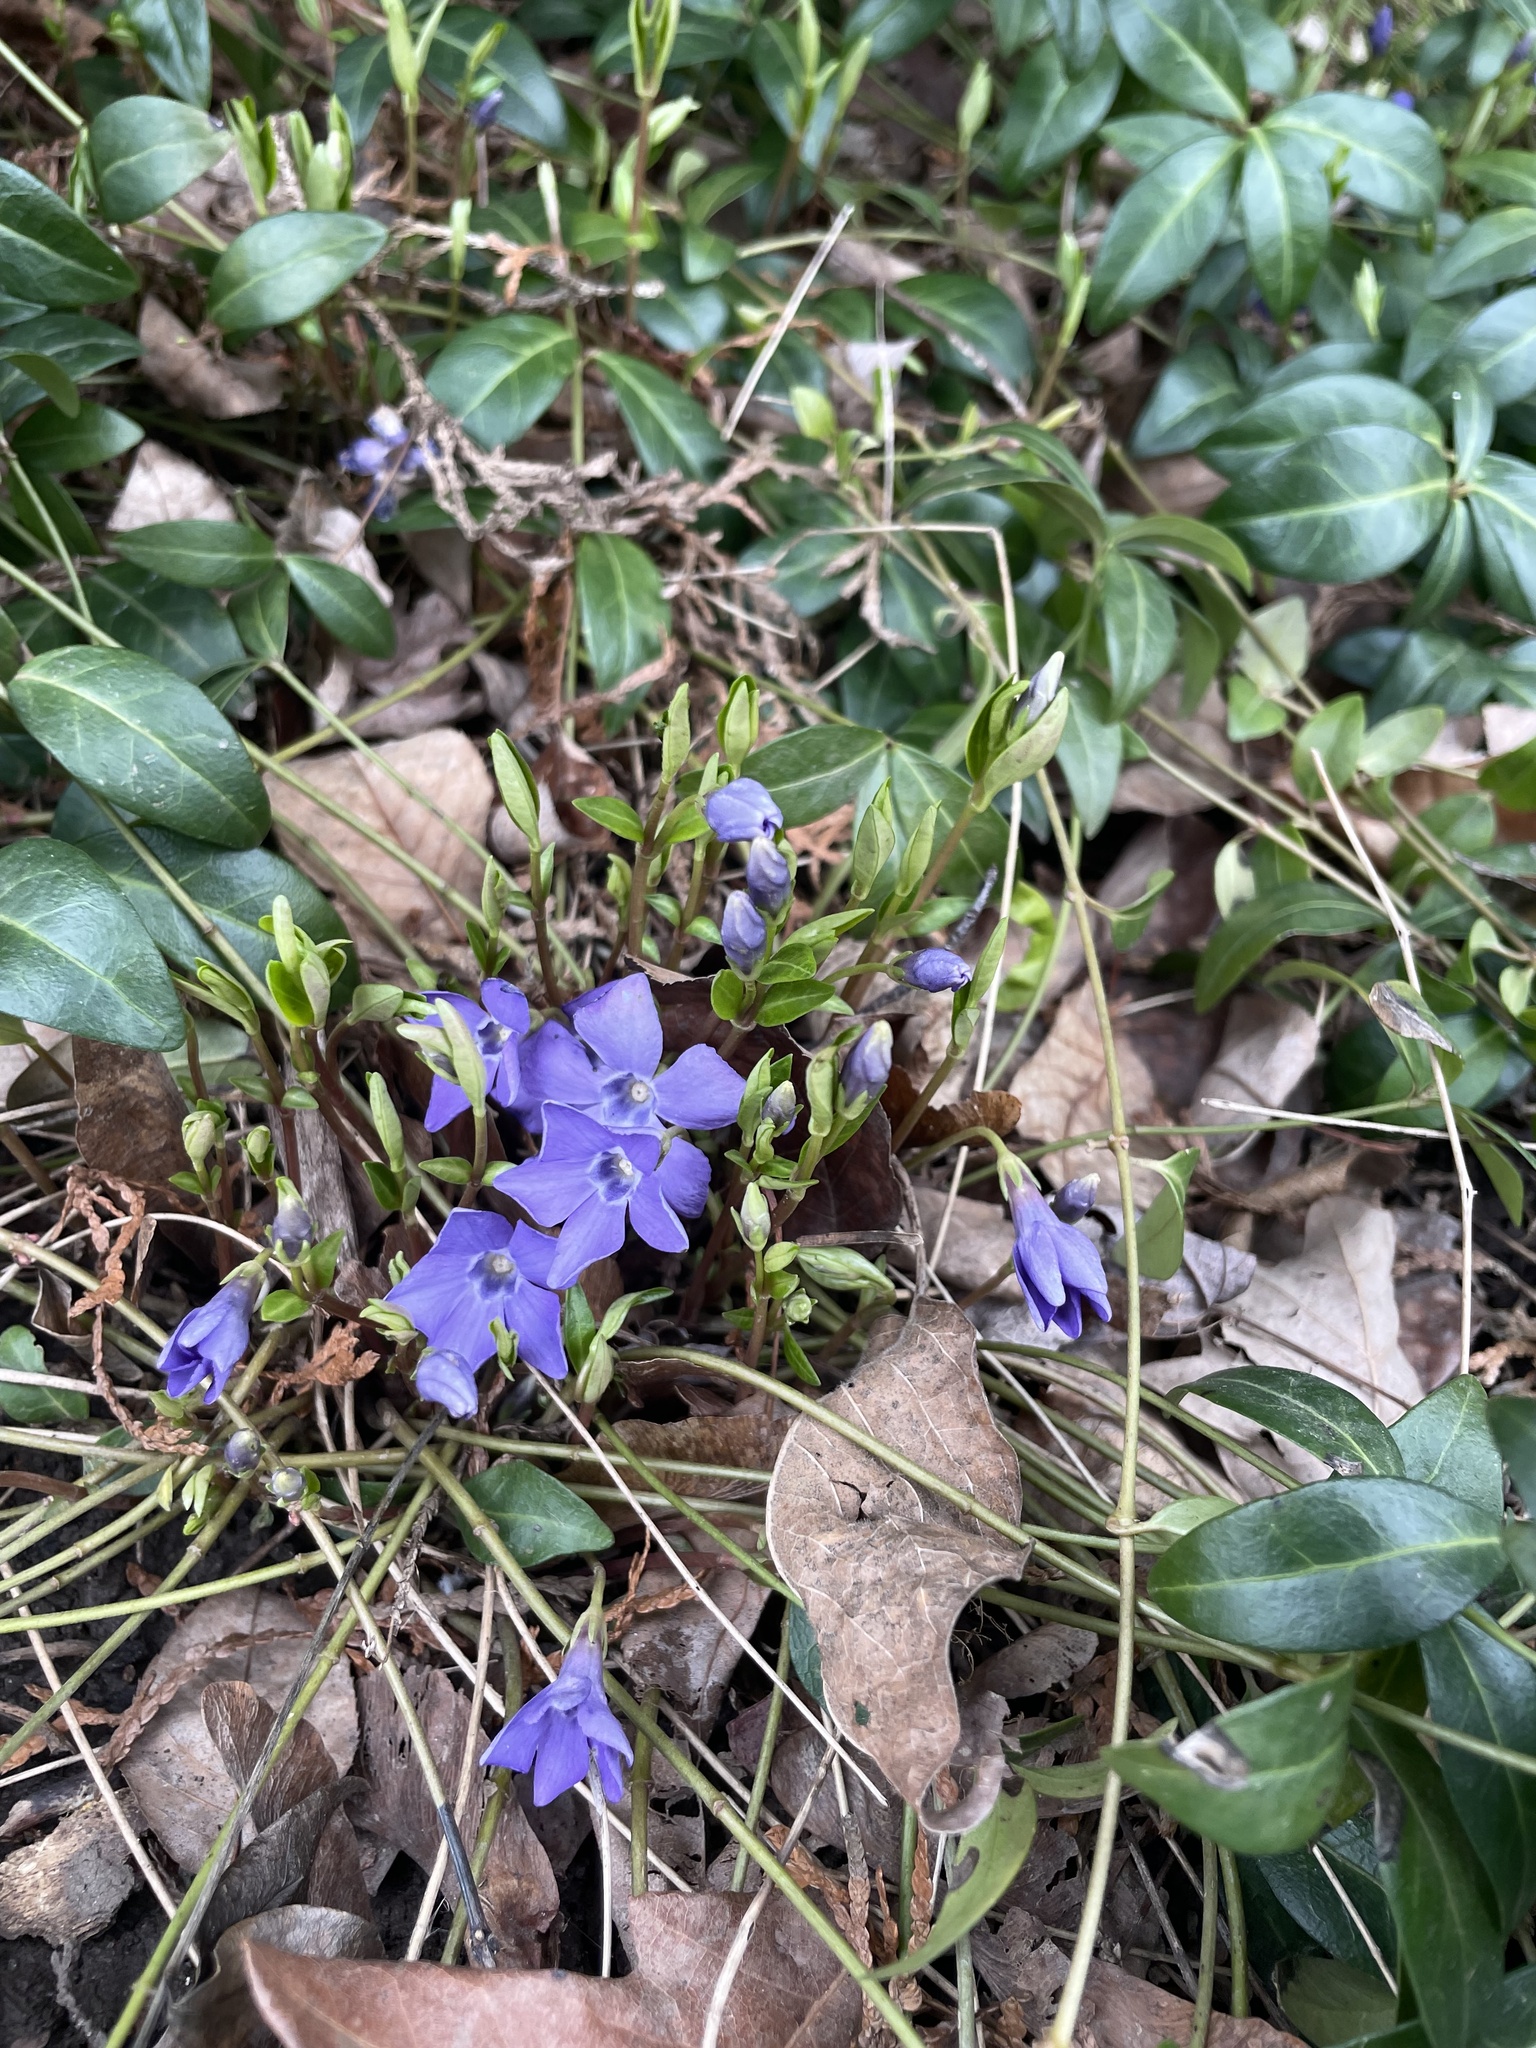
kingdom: Plantae
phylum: Tracheophyta
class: Magnoliopsida
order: Gentianales
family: Apocynaceae
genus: Vinca
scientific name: Vinca minor
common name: Lesser periwinkle
